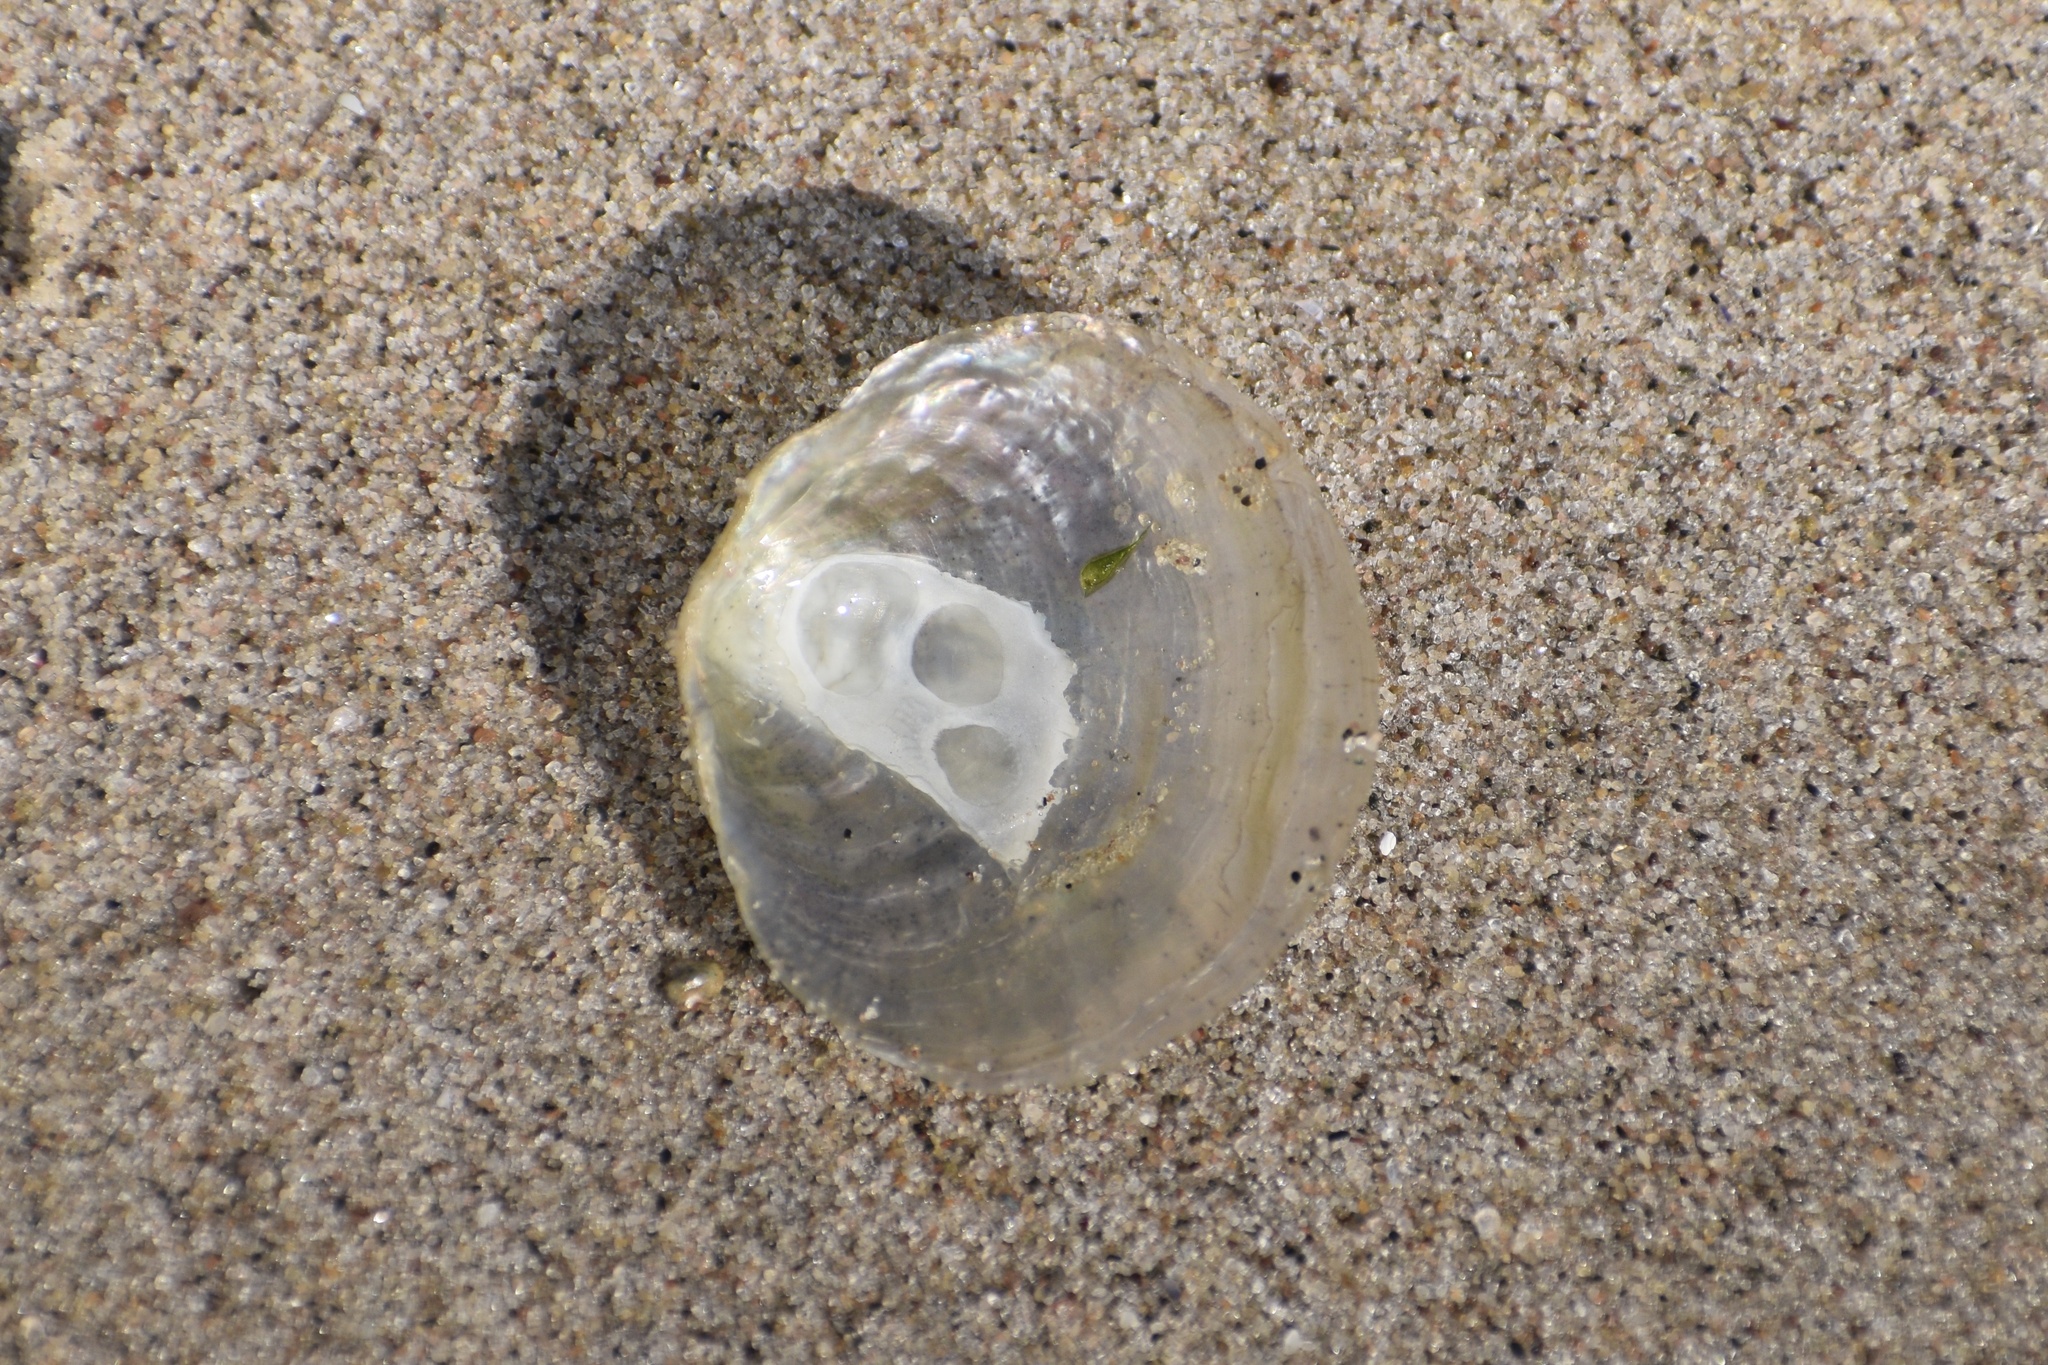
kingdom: Animalia
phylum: Mollusca
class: Bivalvia
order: Pectinida
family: Anomiidae
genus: Anomia
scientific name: Anomia simplex
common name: Common jingle shell
